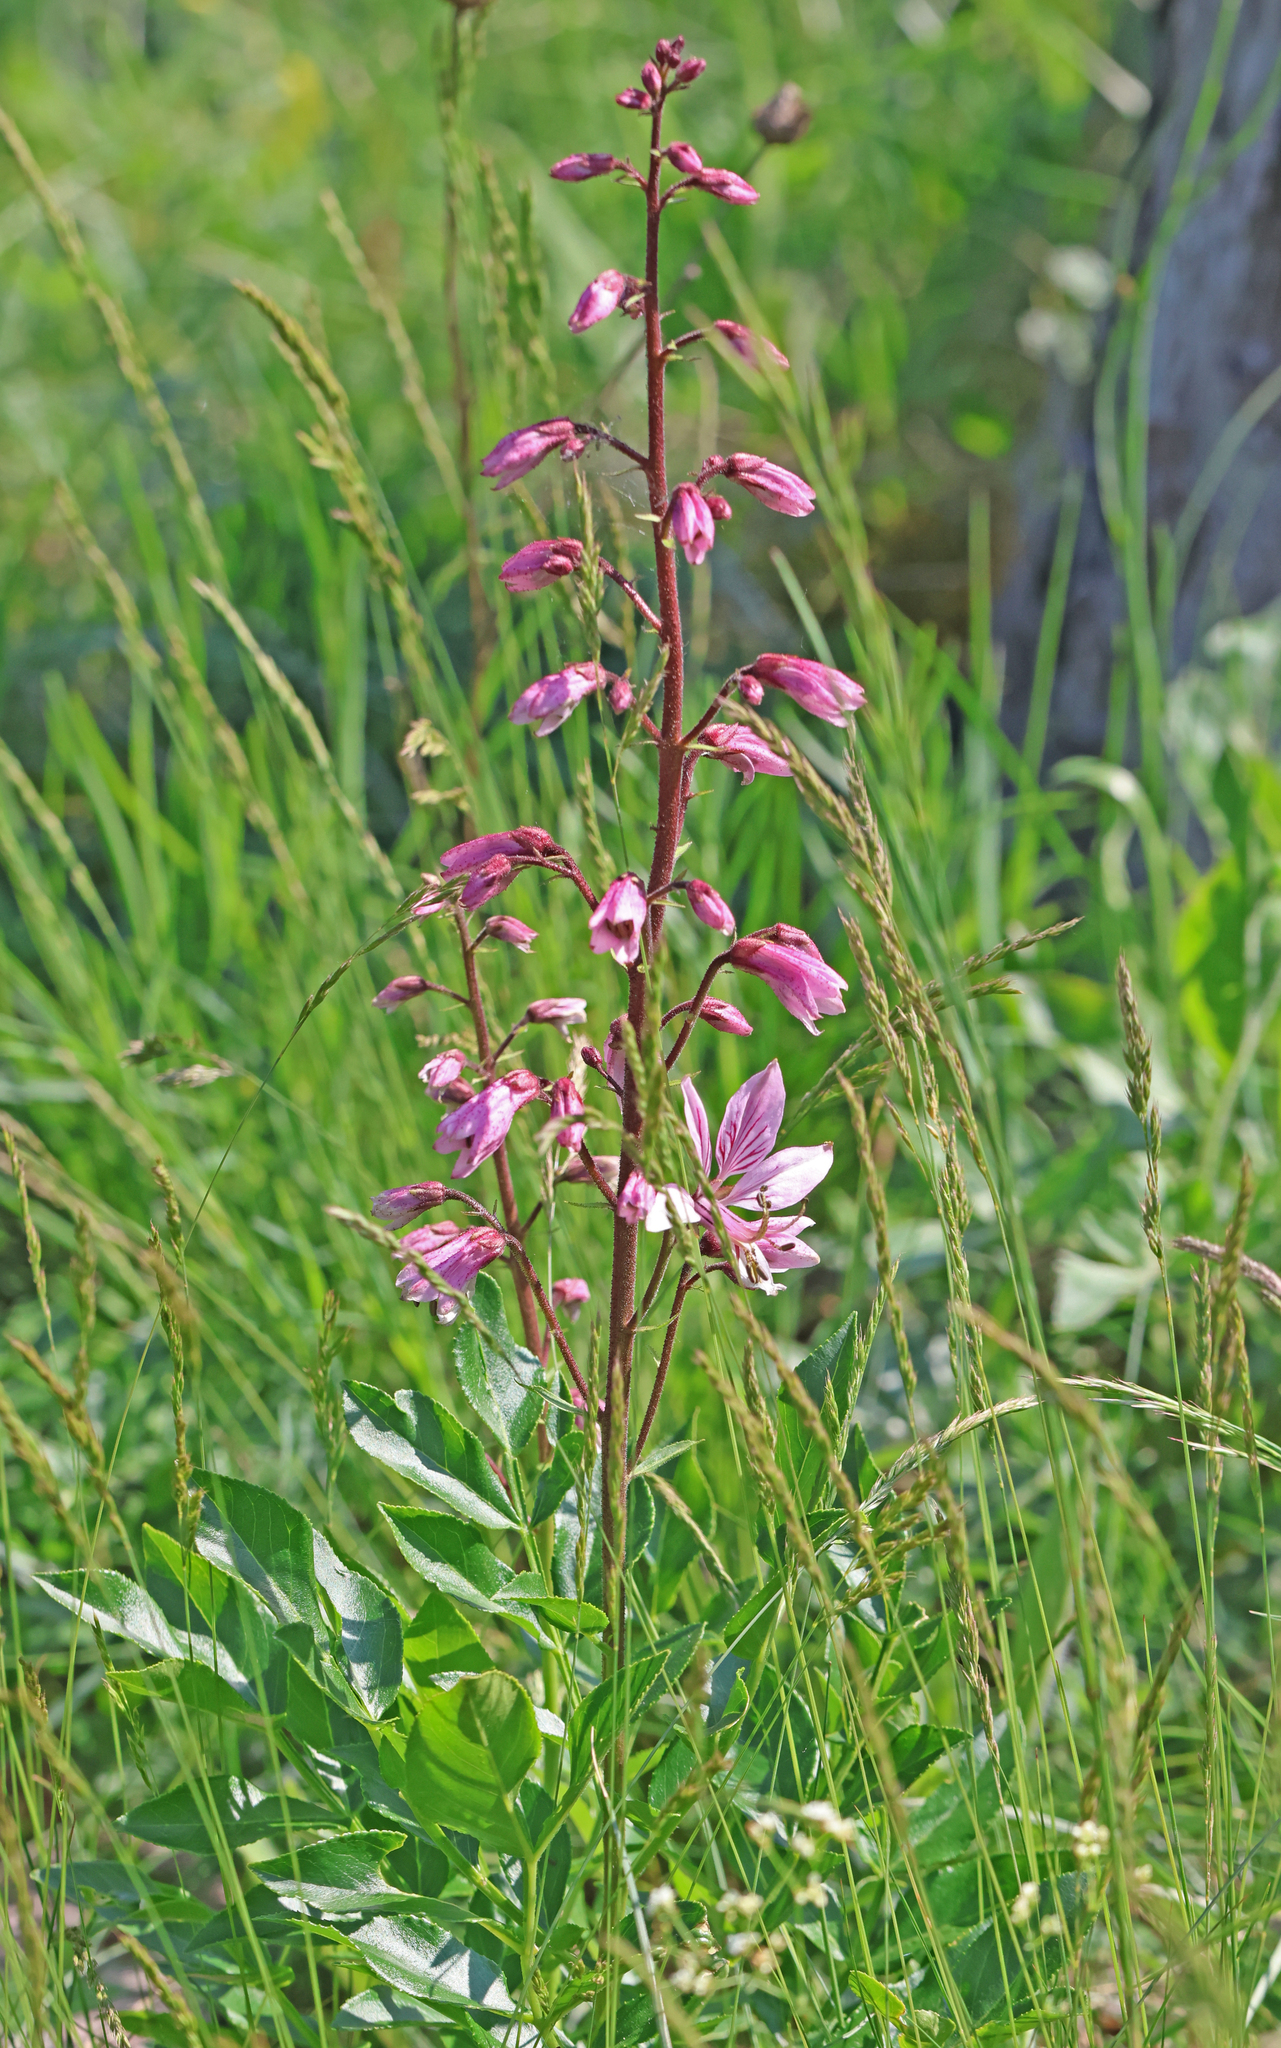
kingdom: Plantae
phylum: Tracheophyta
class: Magnoliopsida
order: Sapindales
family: Rutaceae
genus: Dictamnus
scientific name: Dictamnus albus
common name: Gasplant
